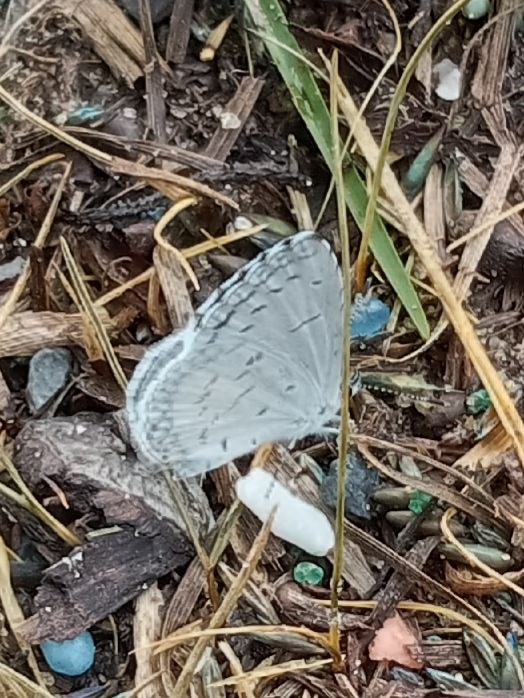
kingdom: Animalia
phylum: Arthropoda
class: Insecta
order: Lepidoptera
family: Lycaenidae
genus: Cyaniris
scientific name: Cyaniris neglecta
